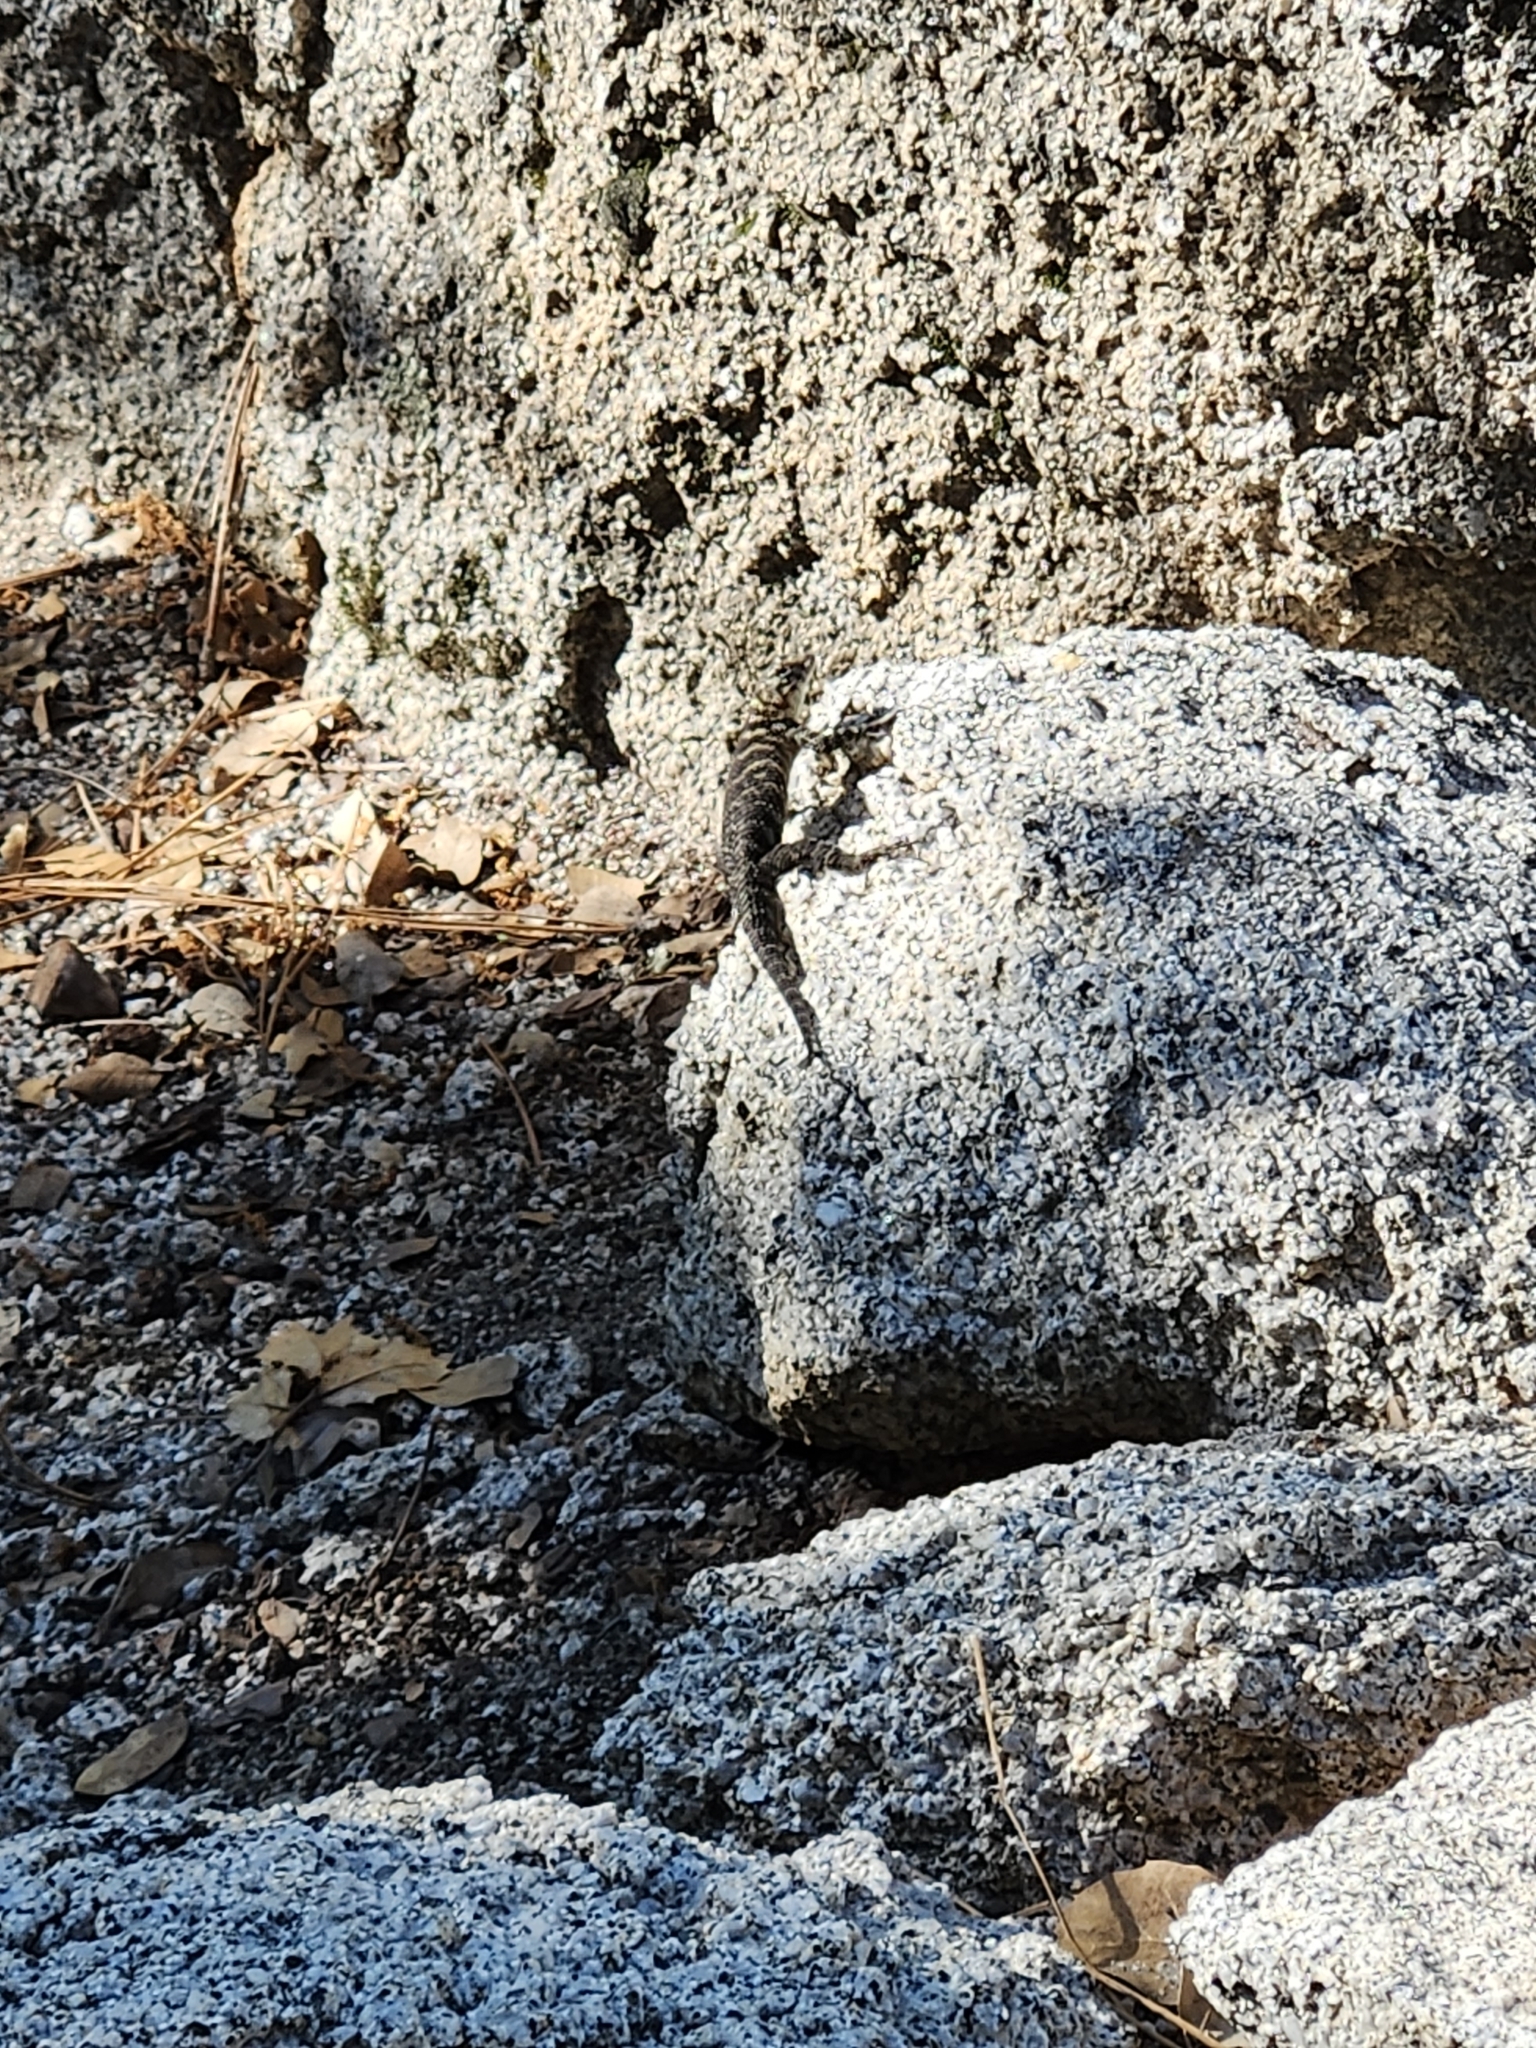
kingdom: Animalia
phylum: Chordata
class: Squamata
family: Phrynosomatidae
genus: Sceloporus
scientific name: Sceloporus orcutti
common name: Granite spiny lizard
